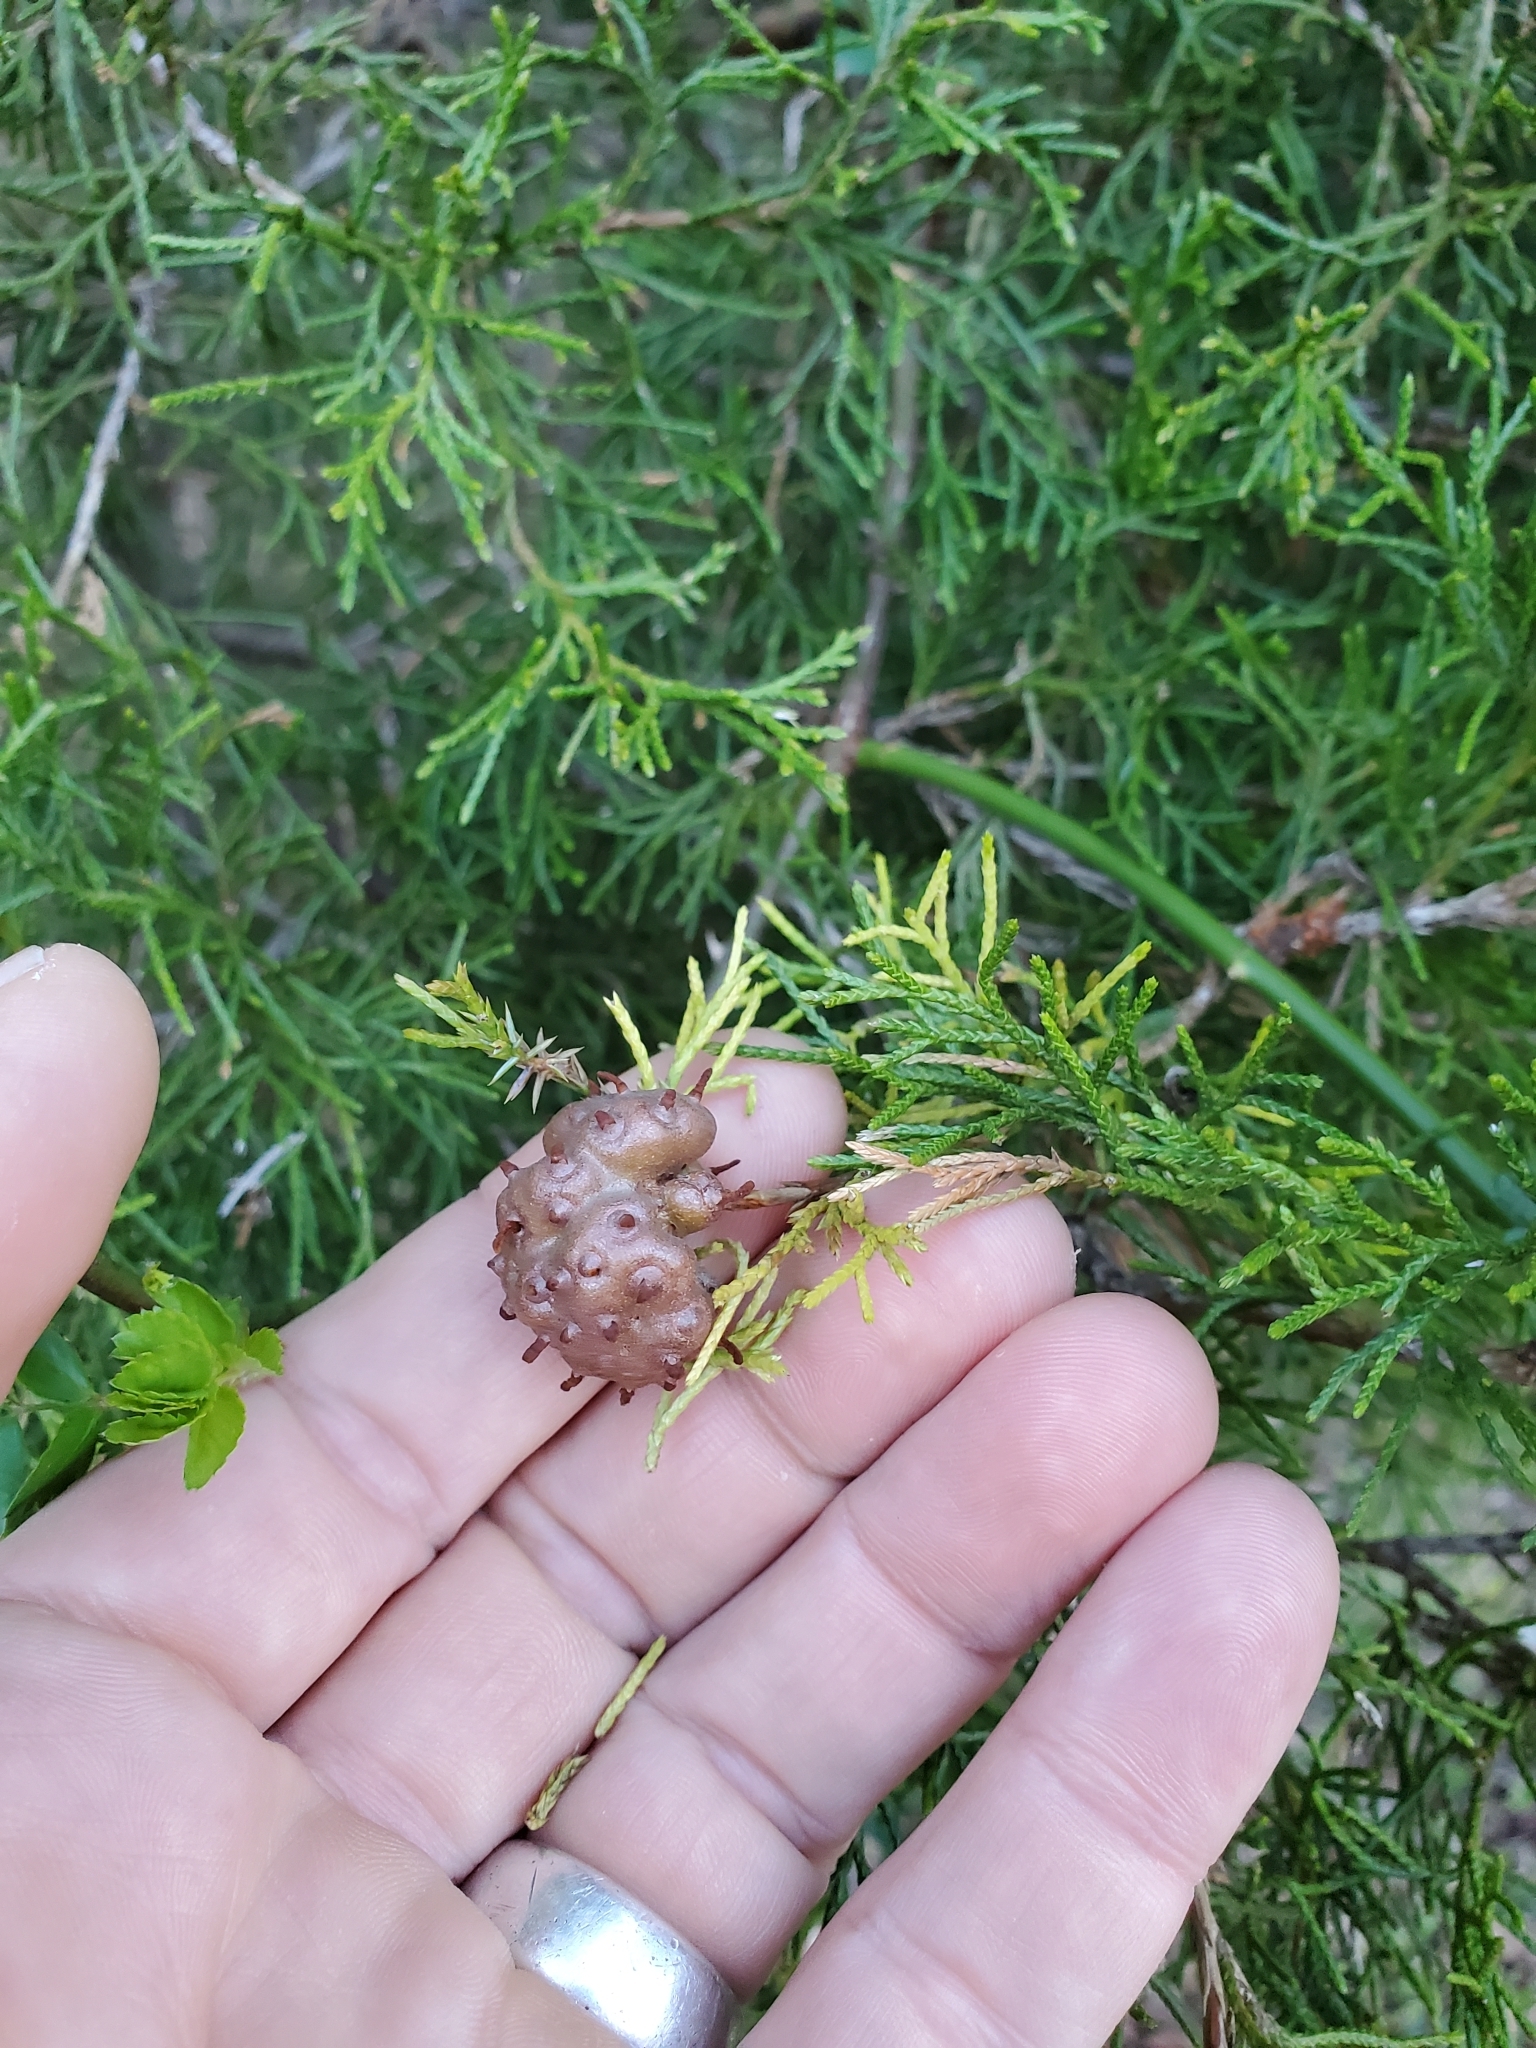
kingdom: Fungi
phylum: Basidiomycota
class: Pucciniomycetes
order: Pucciniales
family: Gymnosporangiaceae
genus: Gymnosporangium
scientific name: Gymnosporangium juniperi-virginianae
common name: Juniper-apple rust
